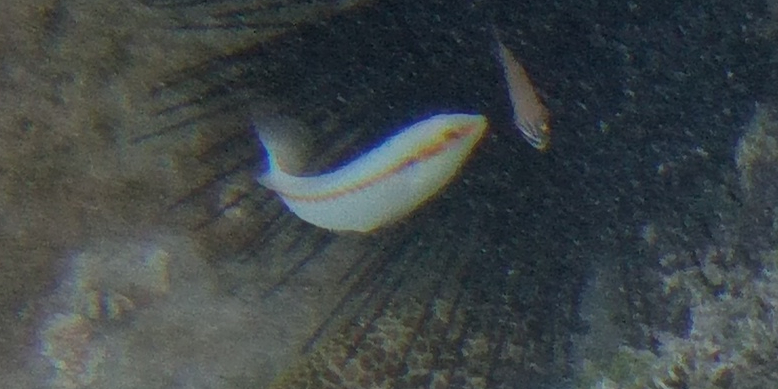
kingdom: Animalia
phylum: Chordata
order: Perciformes
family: Labridae
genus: Halichoeres
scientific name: Halichoeres scapularis
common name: Brownbanded wrasse
